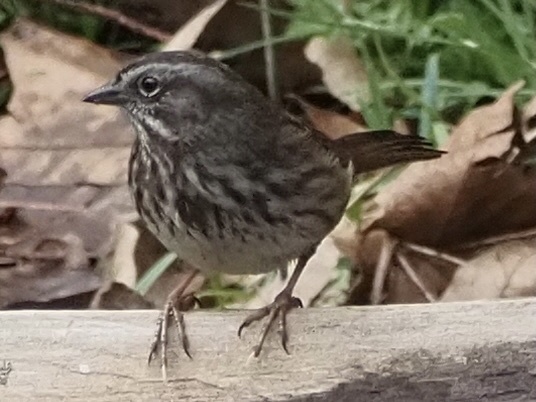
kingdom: Animalia
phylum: Chordata
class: Aves
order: Passeriformes
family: Passerellidae
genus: Melospiza
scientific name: Melospiza melodia
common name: Song sparrow
